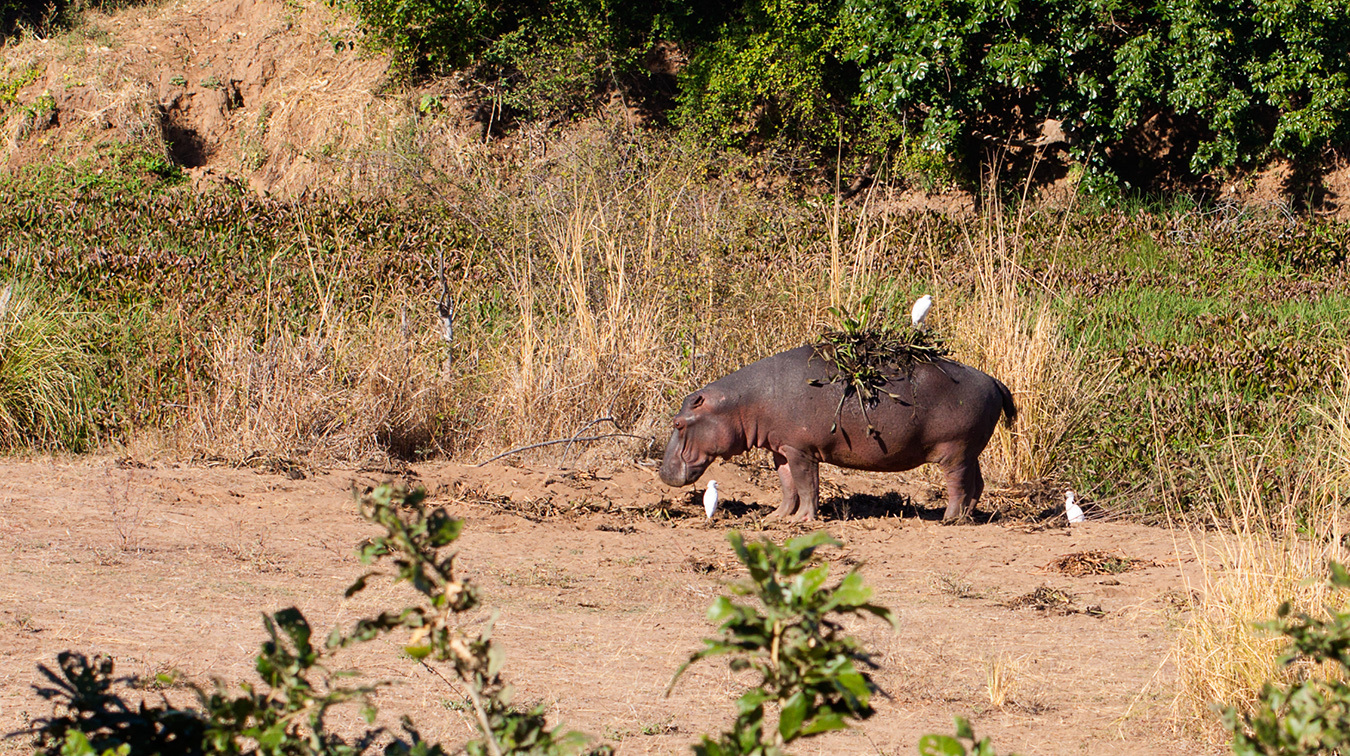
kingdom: Animalia
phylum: Chordata
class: Mammalia
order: Artiodactyla
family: Hippopotamidae
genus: Hippopotamus
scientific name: Hippopotamus amphibius
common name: Common hippopotamus
